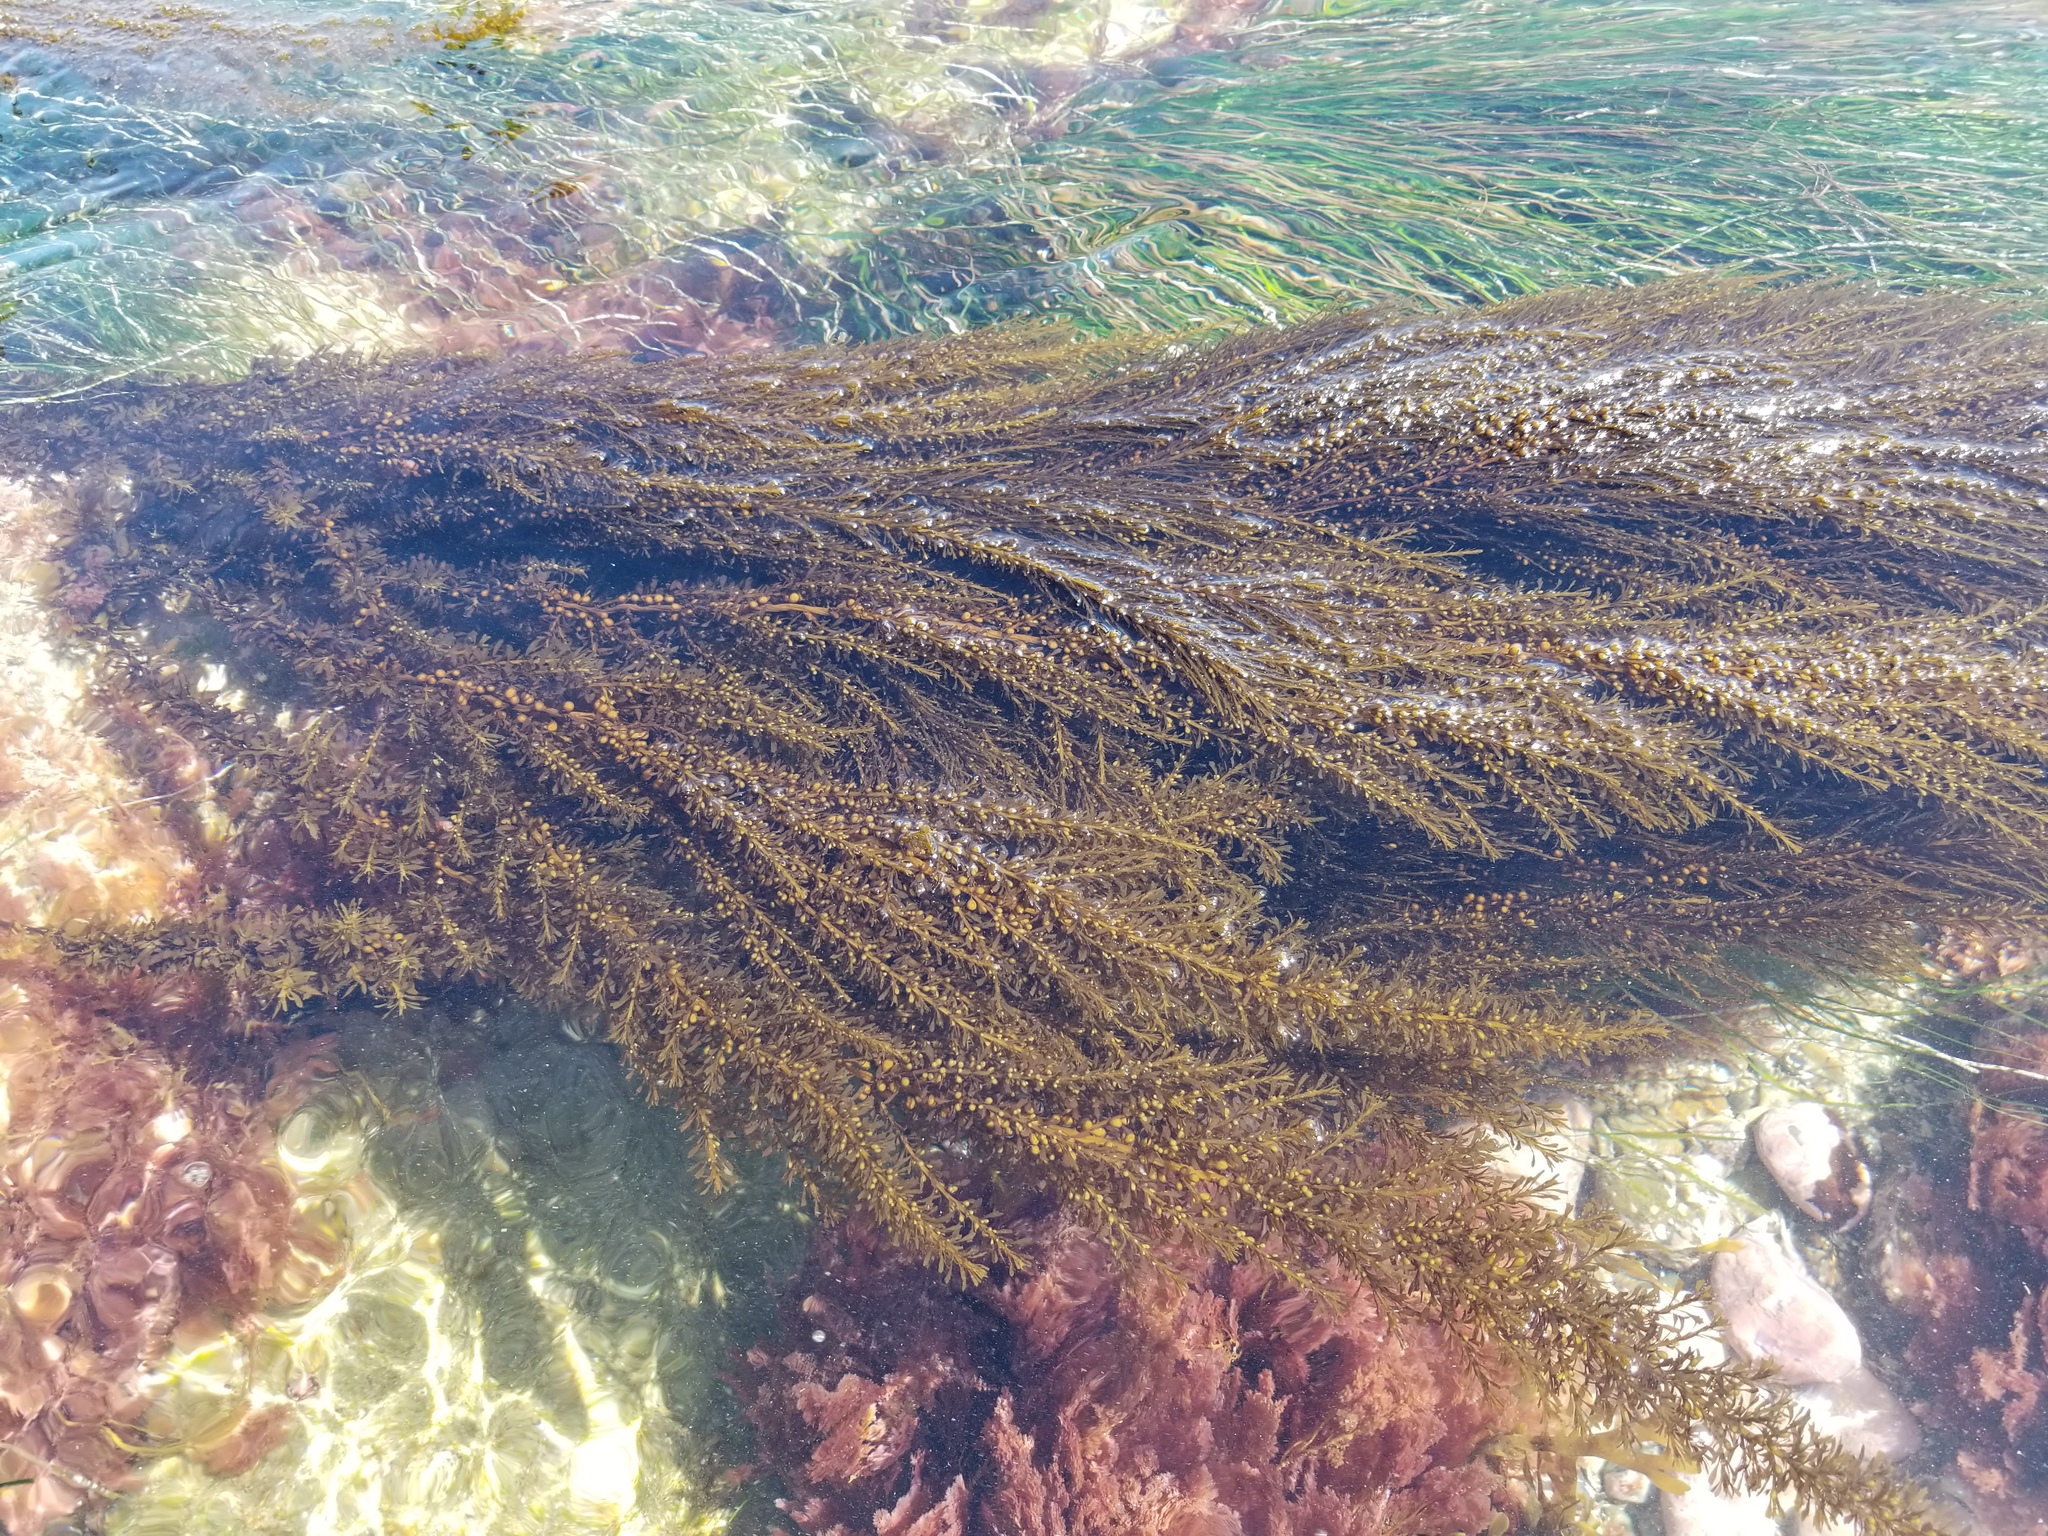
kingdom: Chromista
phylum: Ochrophyta
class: Phaeophyceae
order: Fucales
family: Sargassaceae
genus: Sargassum
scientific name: Sargassum muticum
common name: Japweed
